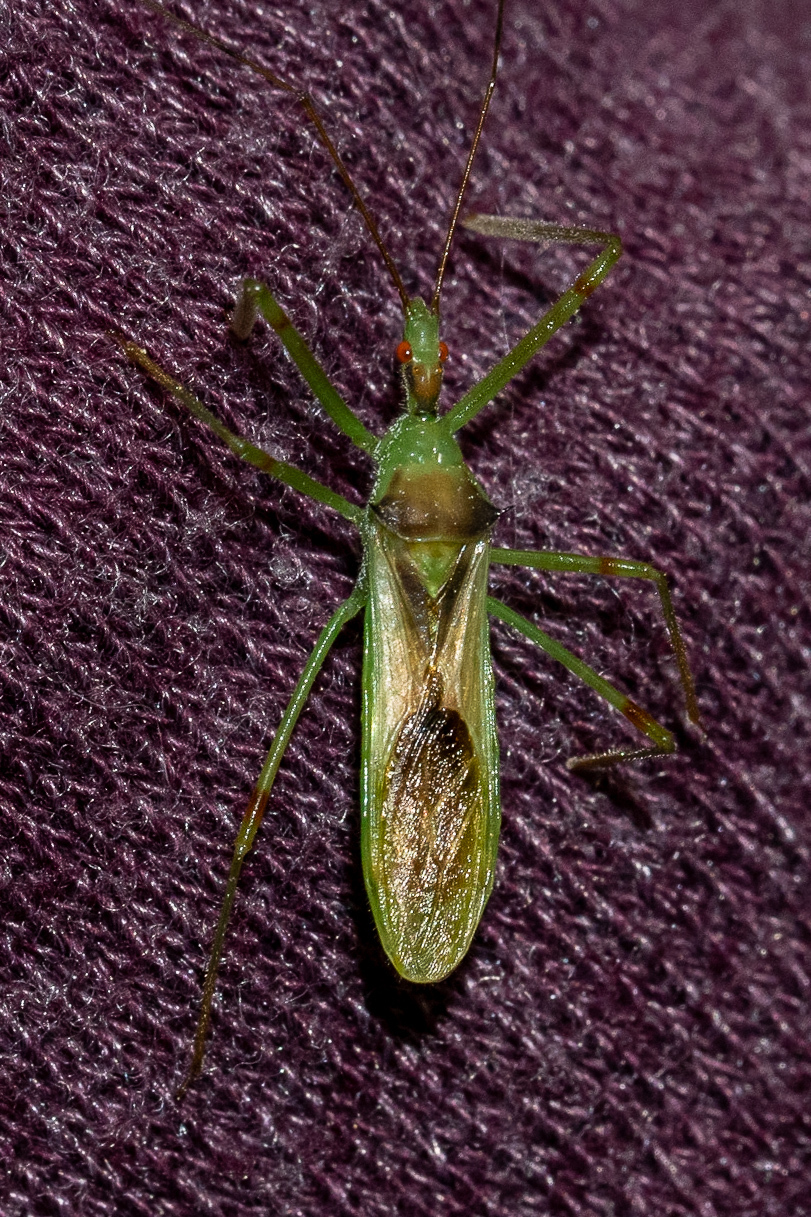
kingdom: Animalia
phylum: Arthropoda
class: Insecta
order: Hemiptera
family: Reduviidae
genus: Zelus
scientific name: Zelus luridus
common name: Pale green assassin bug
